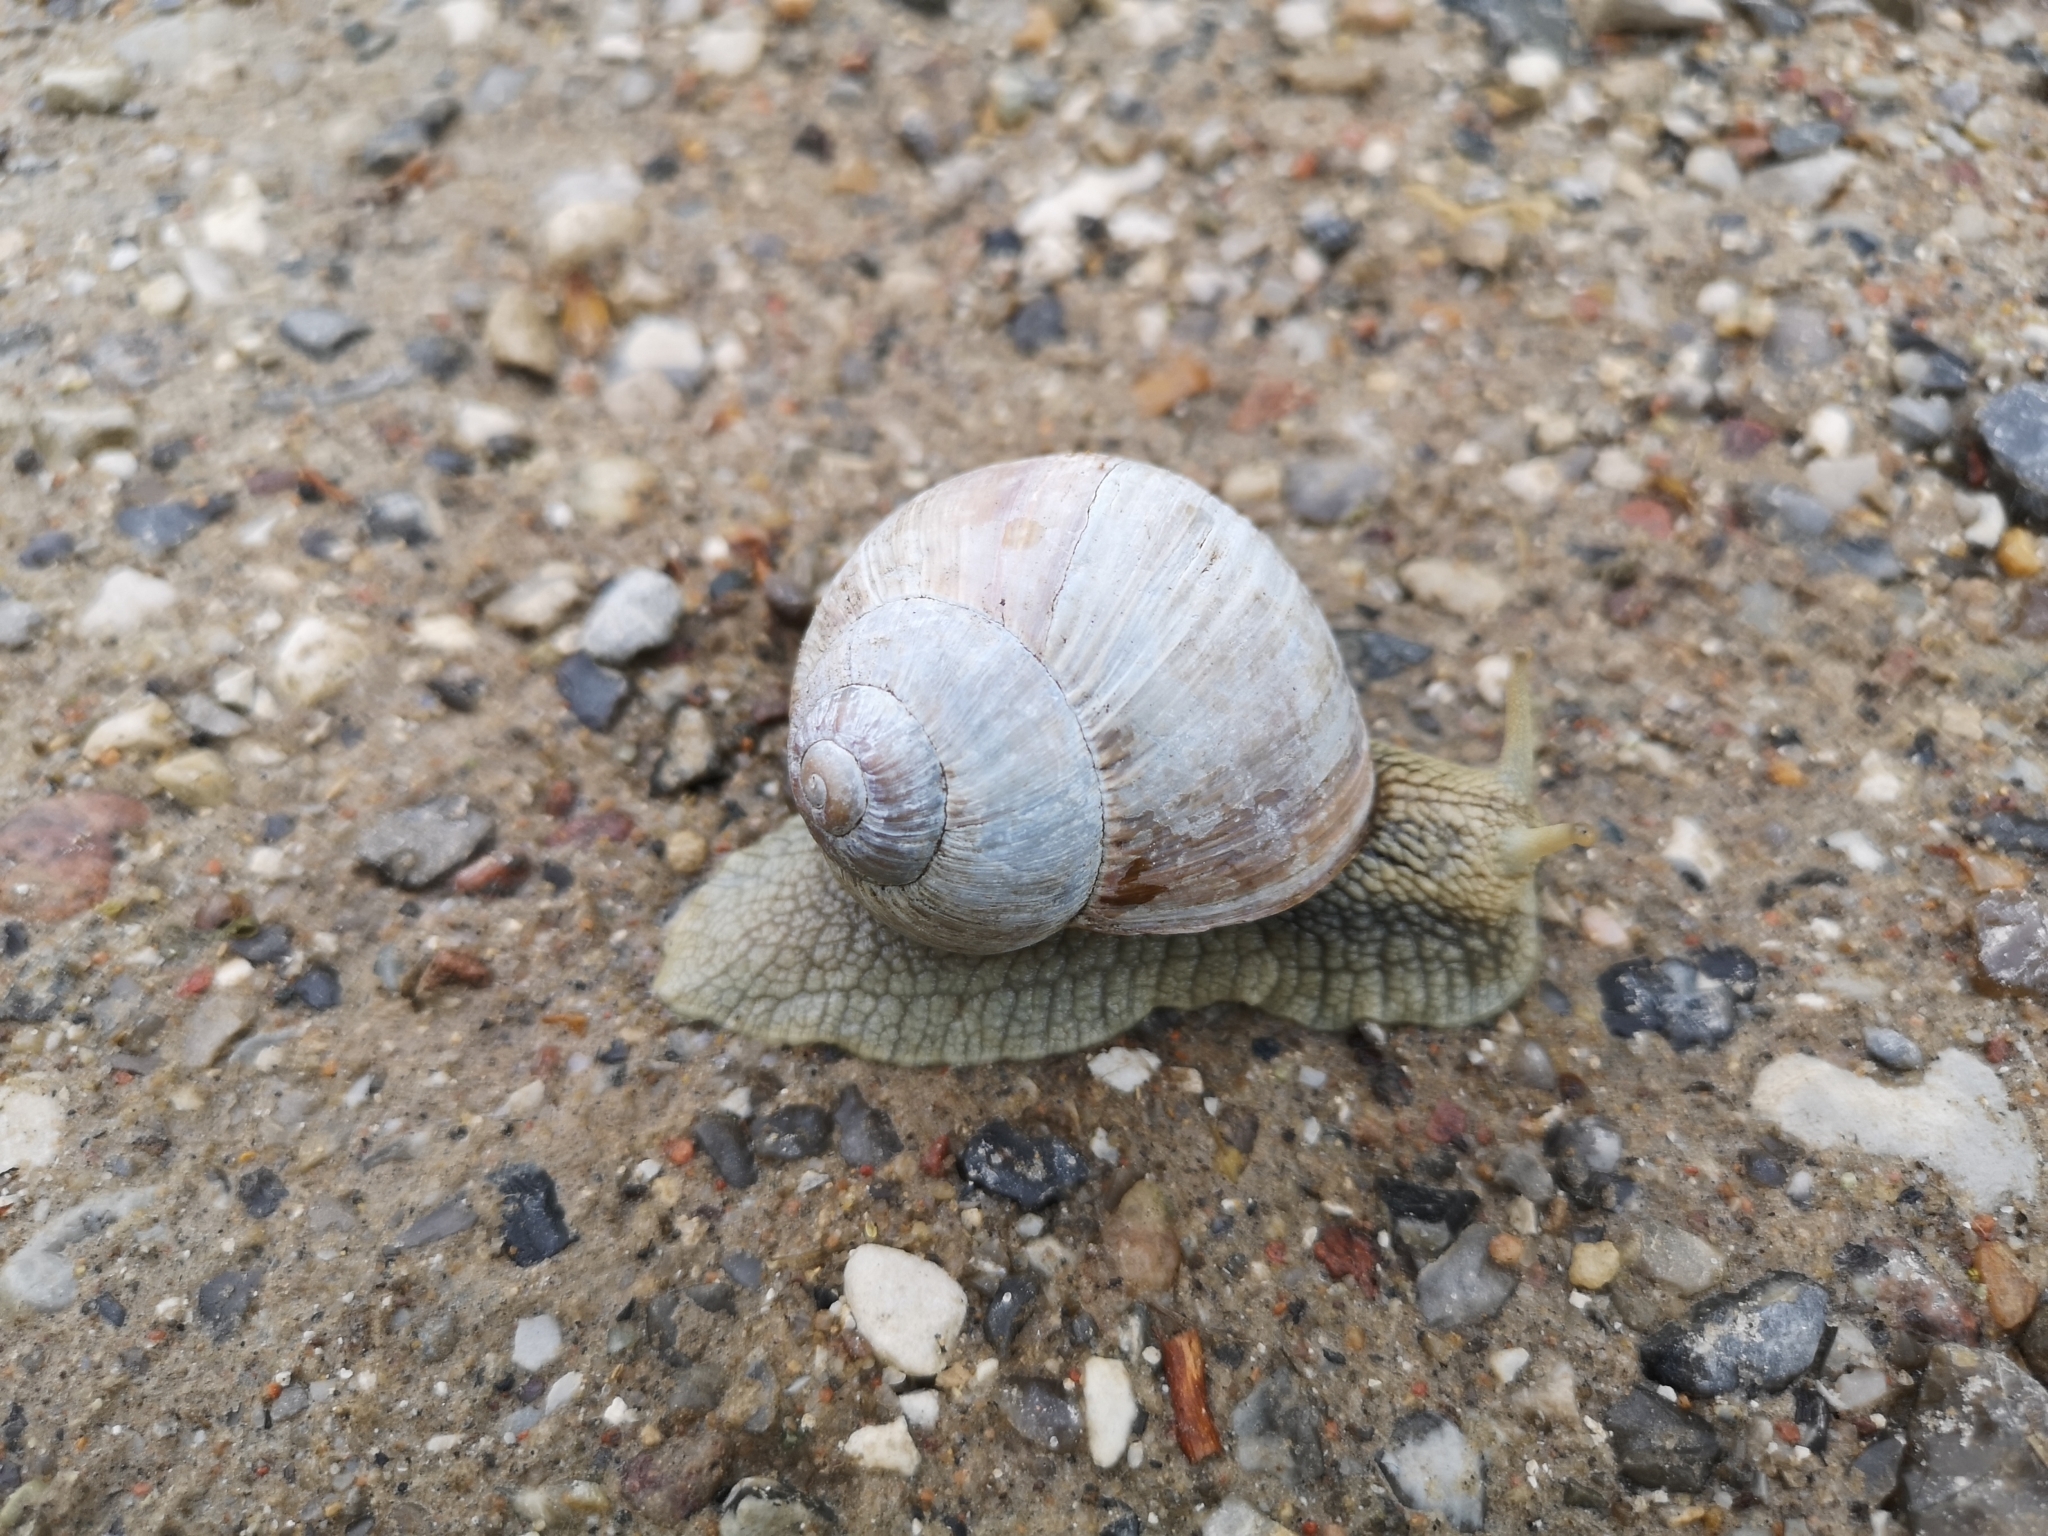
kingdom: Animalia
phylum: Mollusca
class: Gastropoda
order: Stylommatophora
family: Helicidae
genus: Helix
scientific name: Helix pomatia
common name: Roman snail
